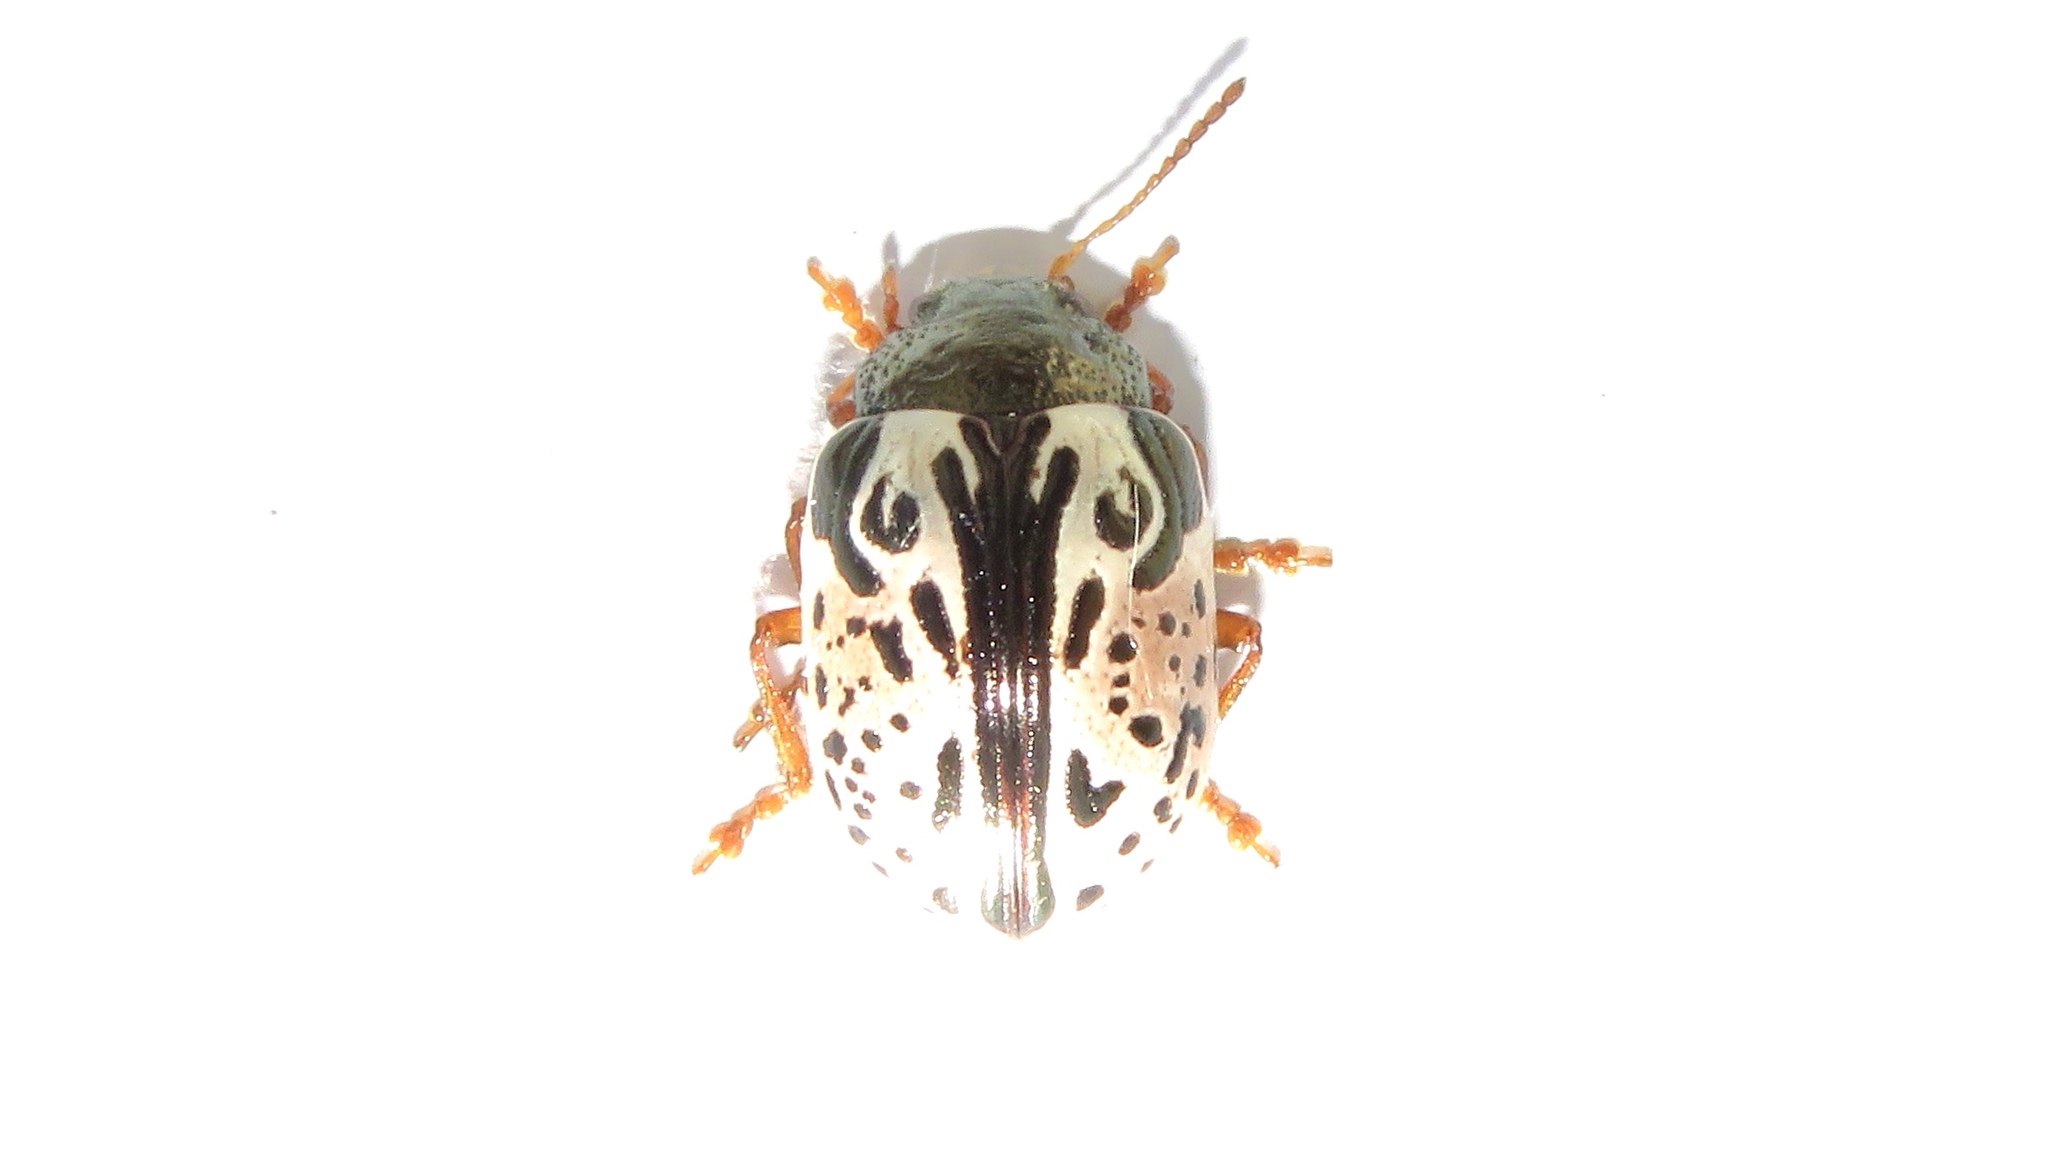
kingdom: Animalia
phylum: Arthropoda
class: Insecta
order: Coleoptera
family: Chrysomelidae
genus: Calligrapha
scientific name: Calligrapha vicina
